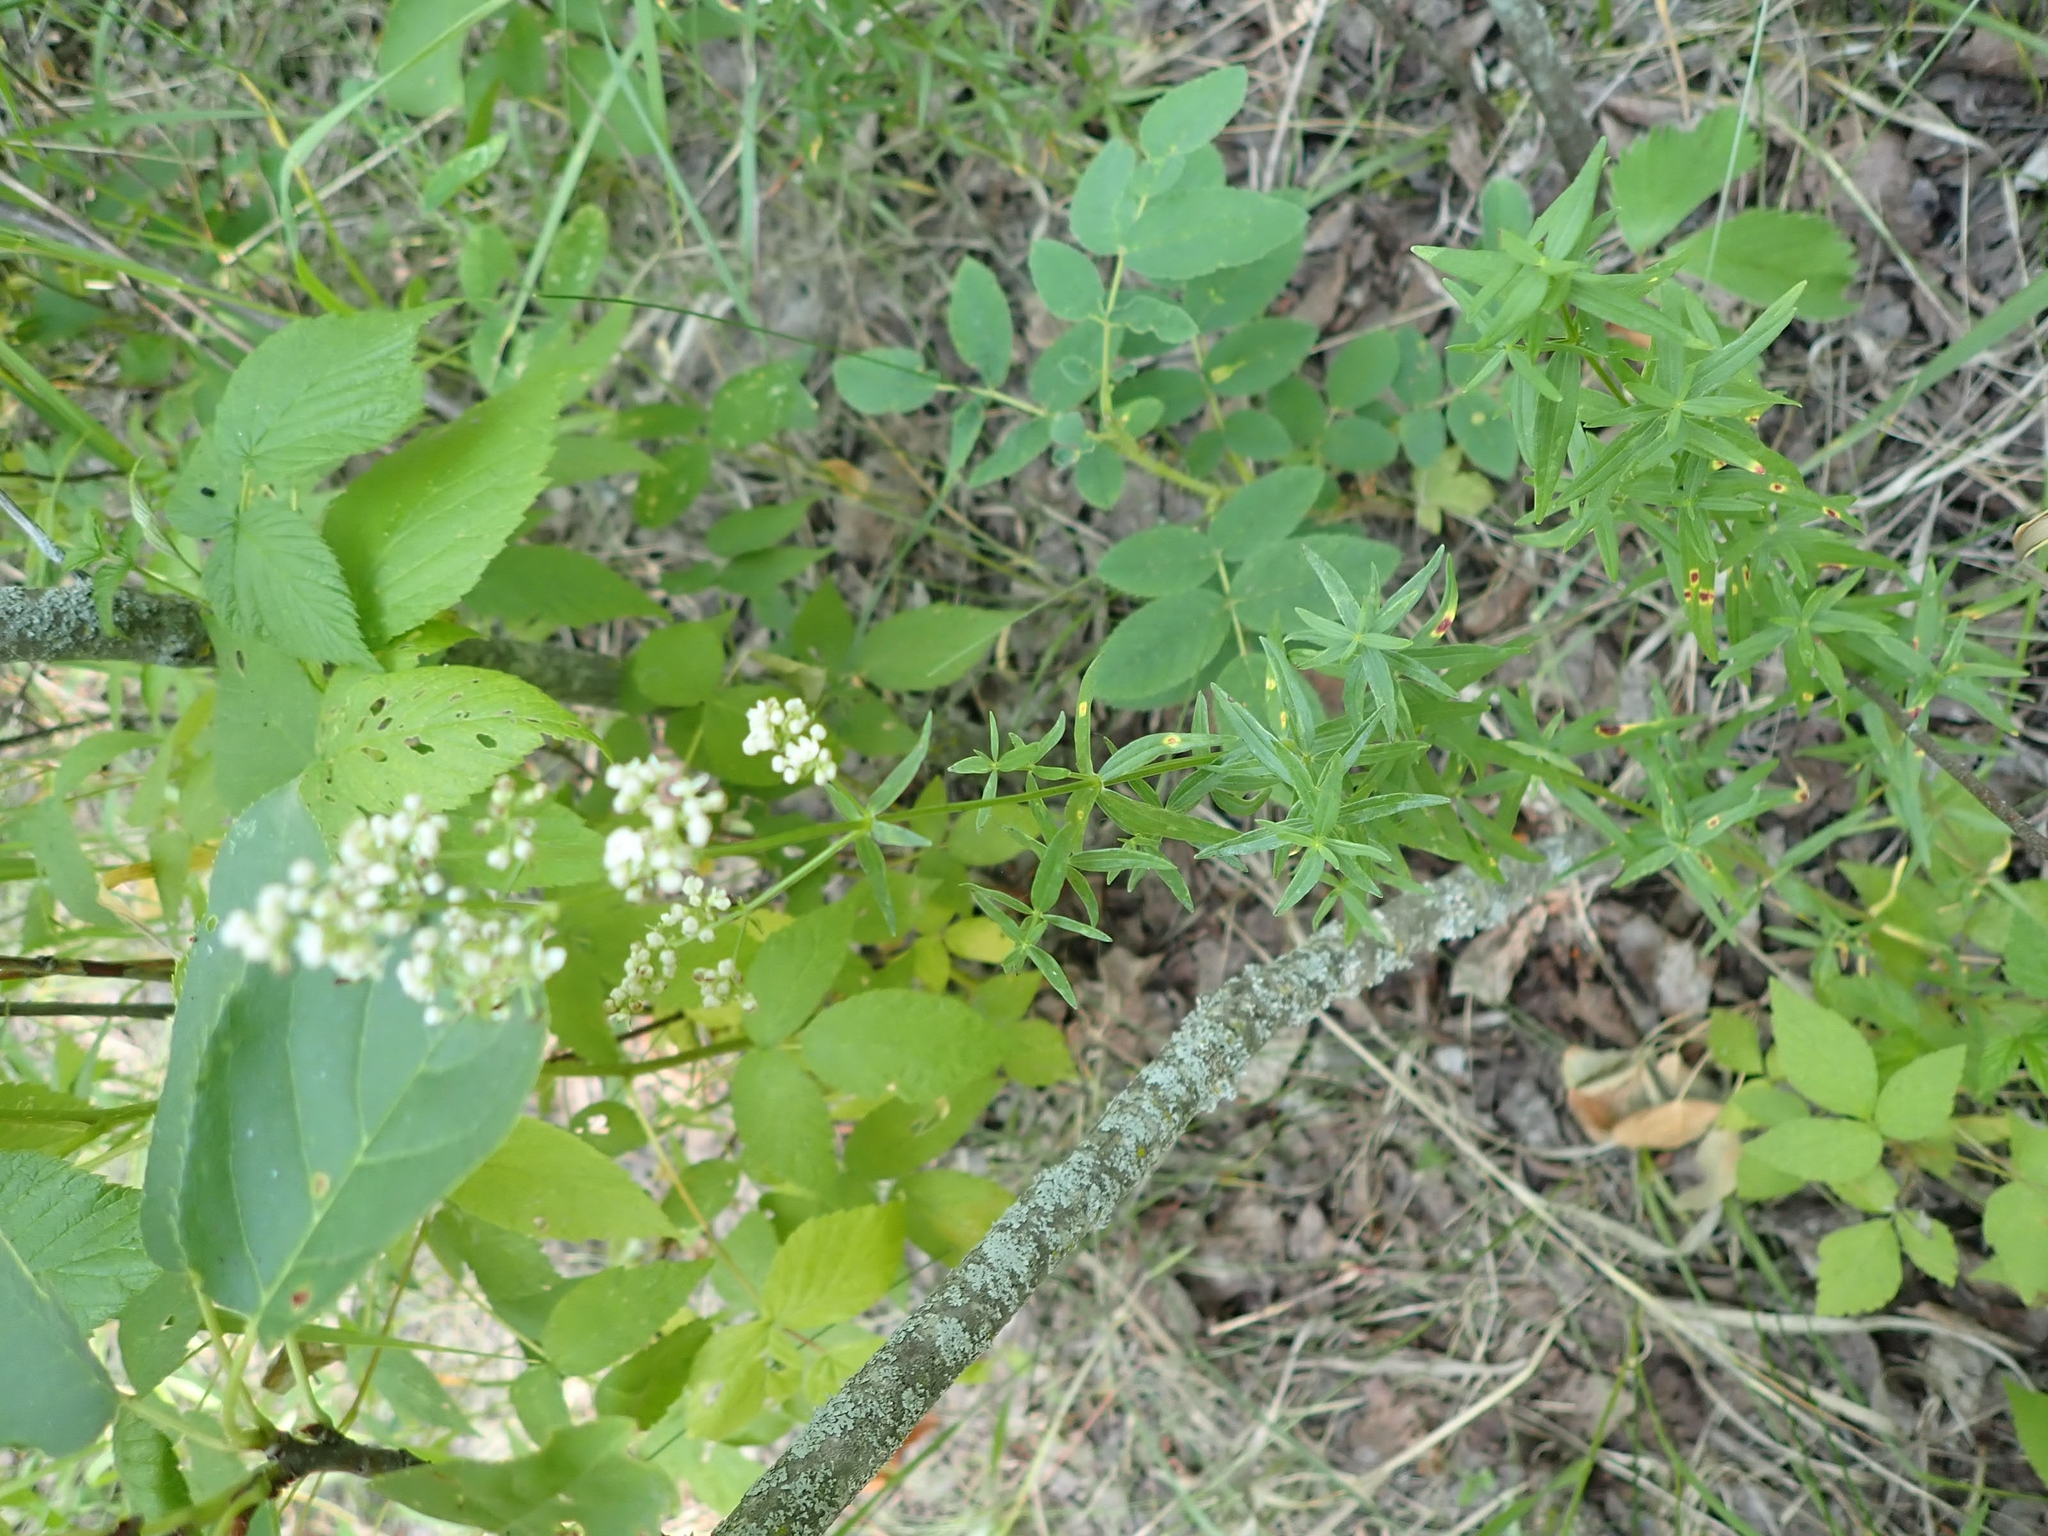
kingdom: Plantae
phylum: Tracheophyta
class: Magnoliopsida
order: Gentianales
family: Rubiaceae
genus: Galium
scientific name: Galium boreale
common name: Northern bedstraw
